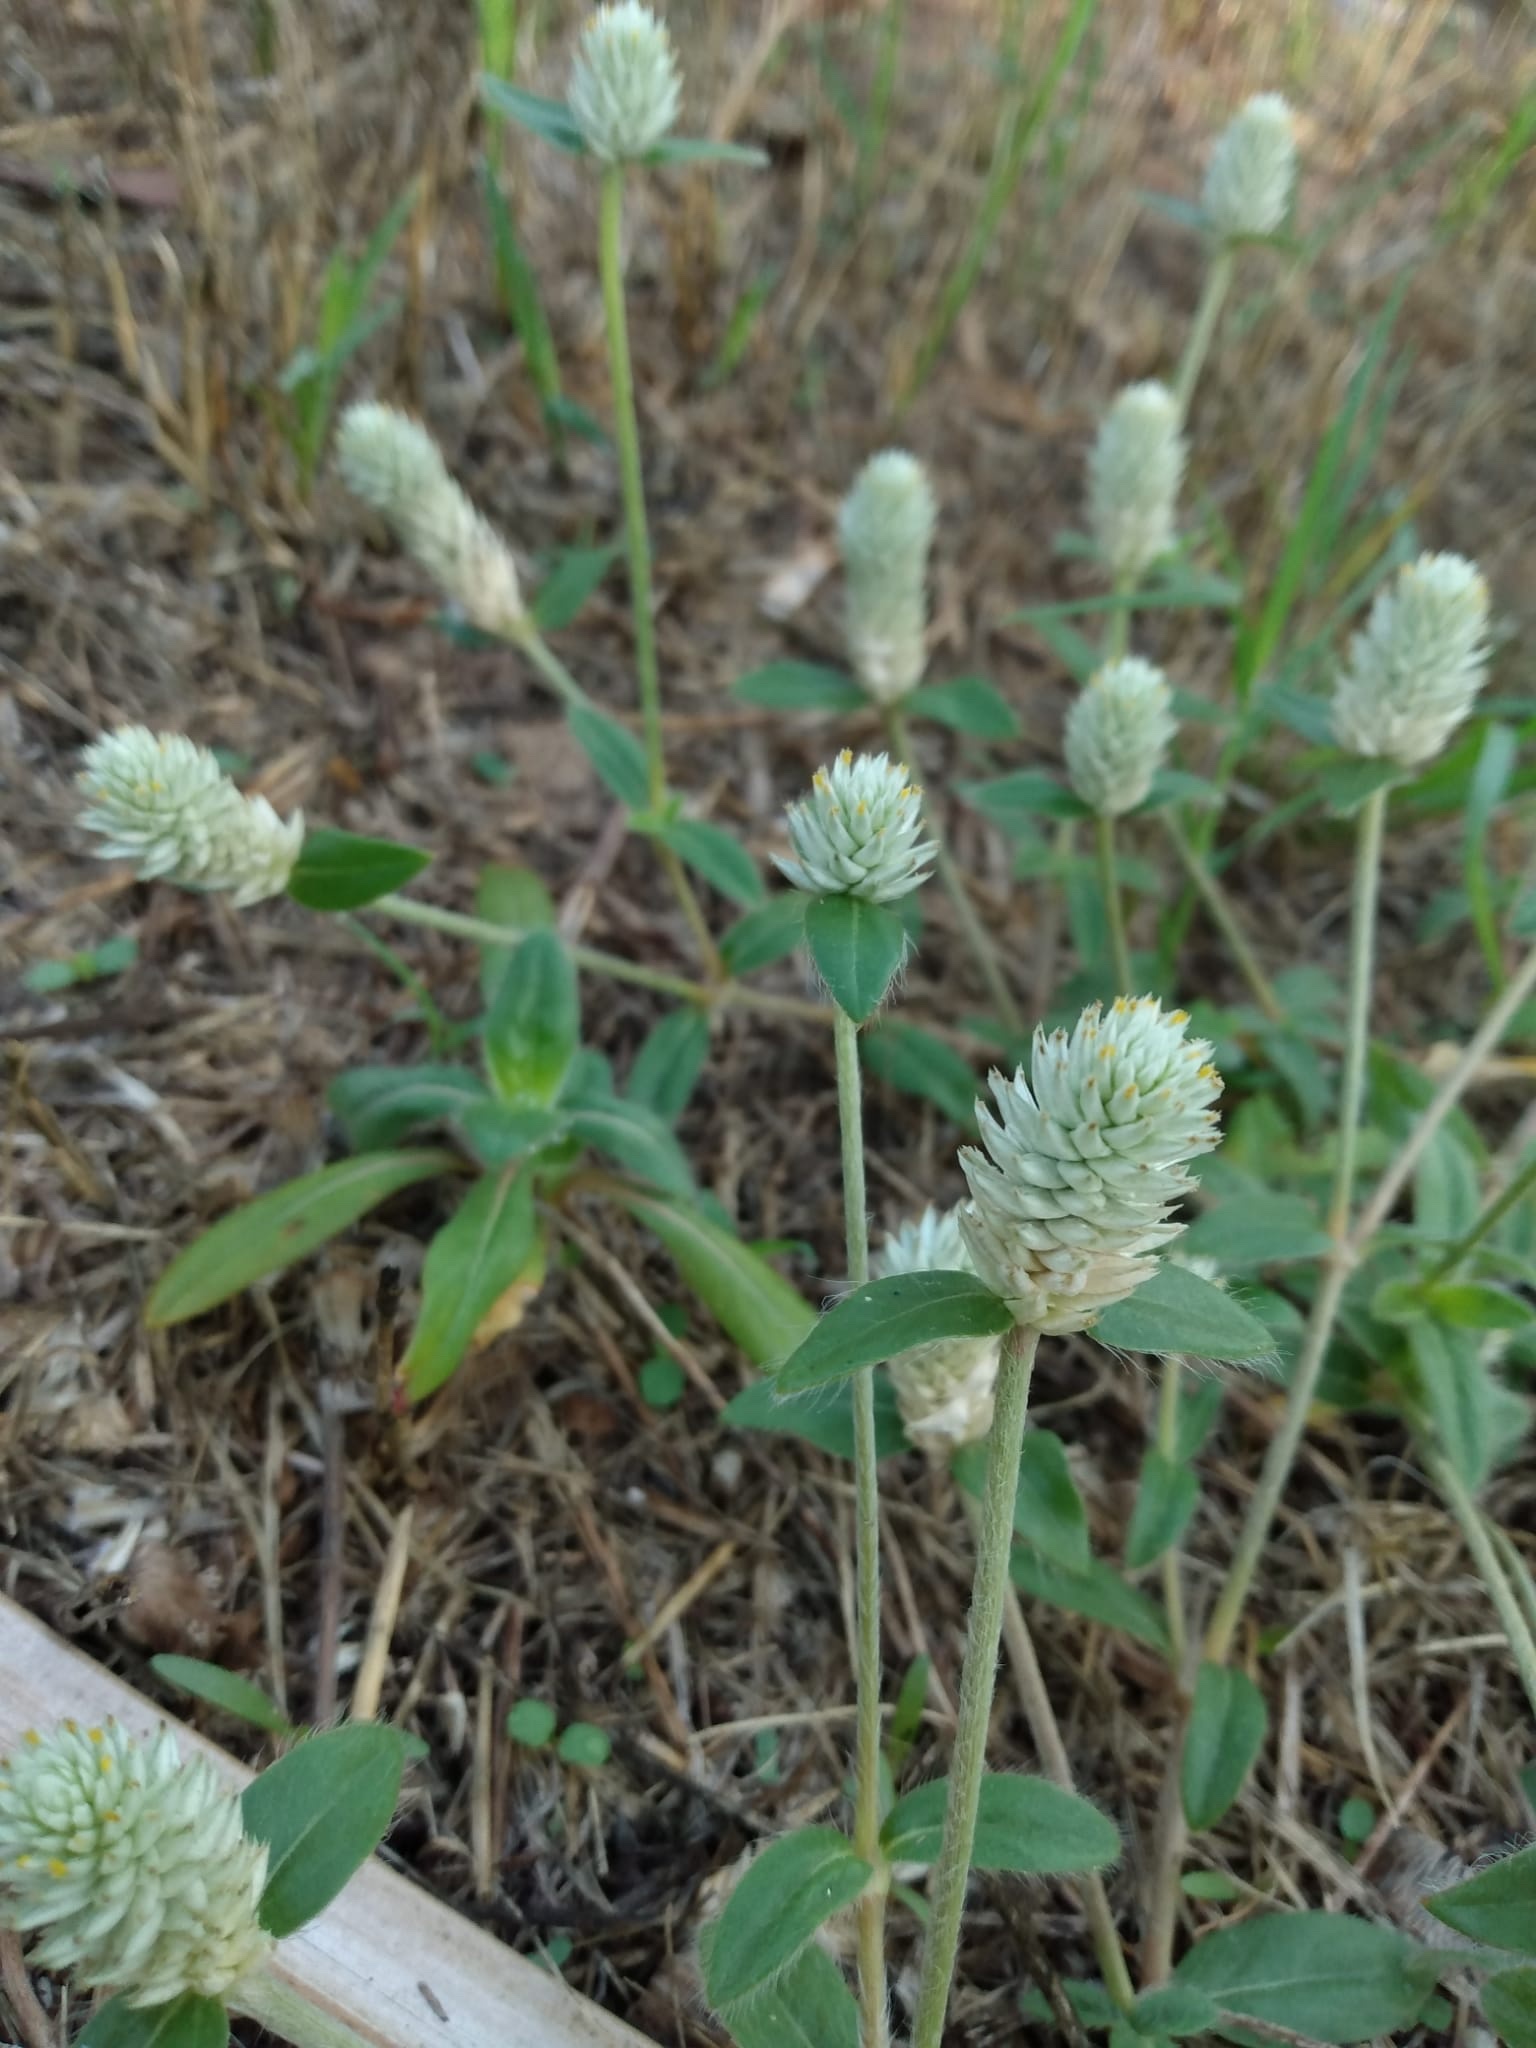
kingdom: Plantae
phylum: Tracheophyta
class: Magnoliopsida
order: Caryophyllales
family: Amaranthaceae
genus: Gomphrena
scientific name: Gomphrena serrata
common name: Arrasa con todo
